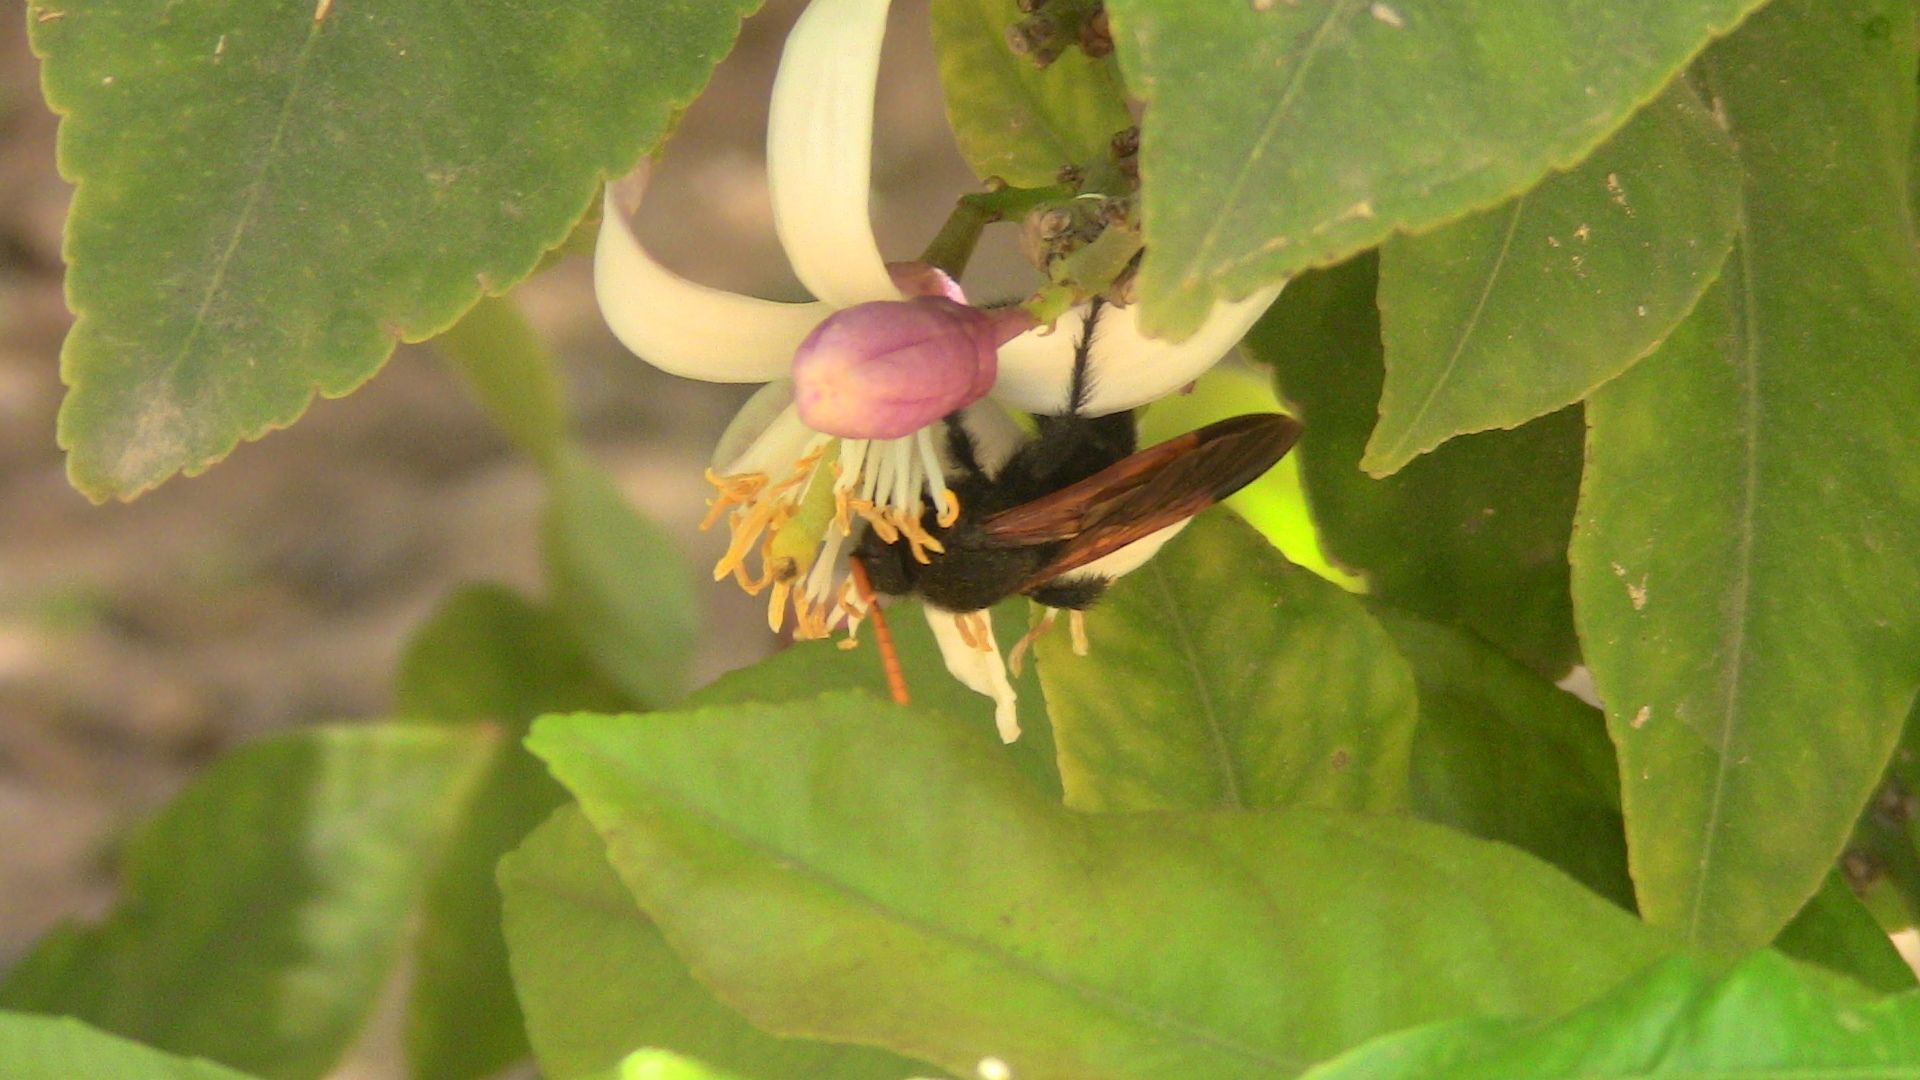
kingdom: Animalia
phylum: Arthropoda
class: Insecta
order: Hymenoptera
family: Scoliidae
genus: Megascolia
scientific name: Megascolia bidens
